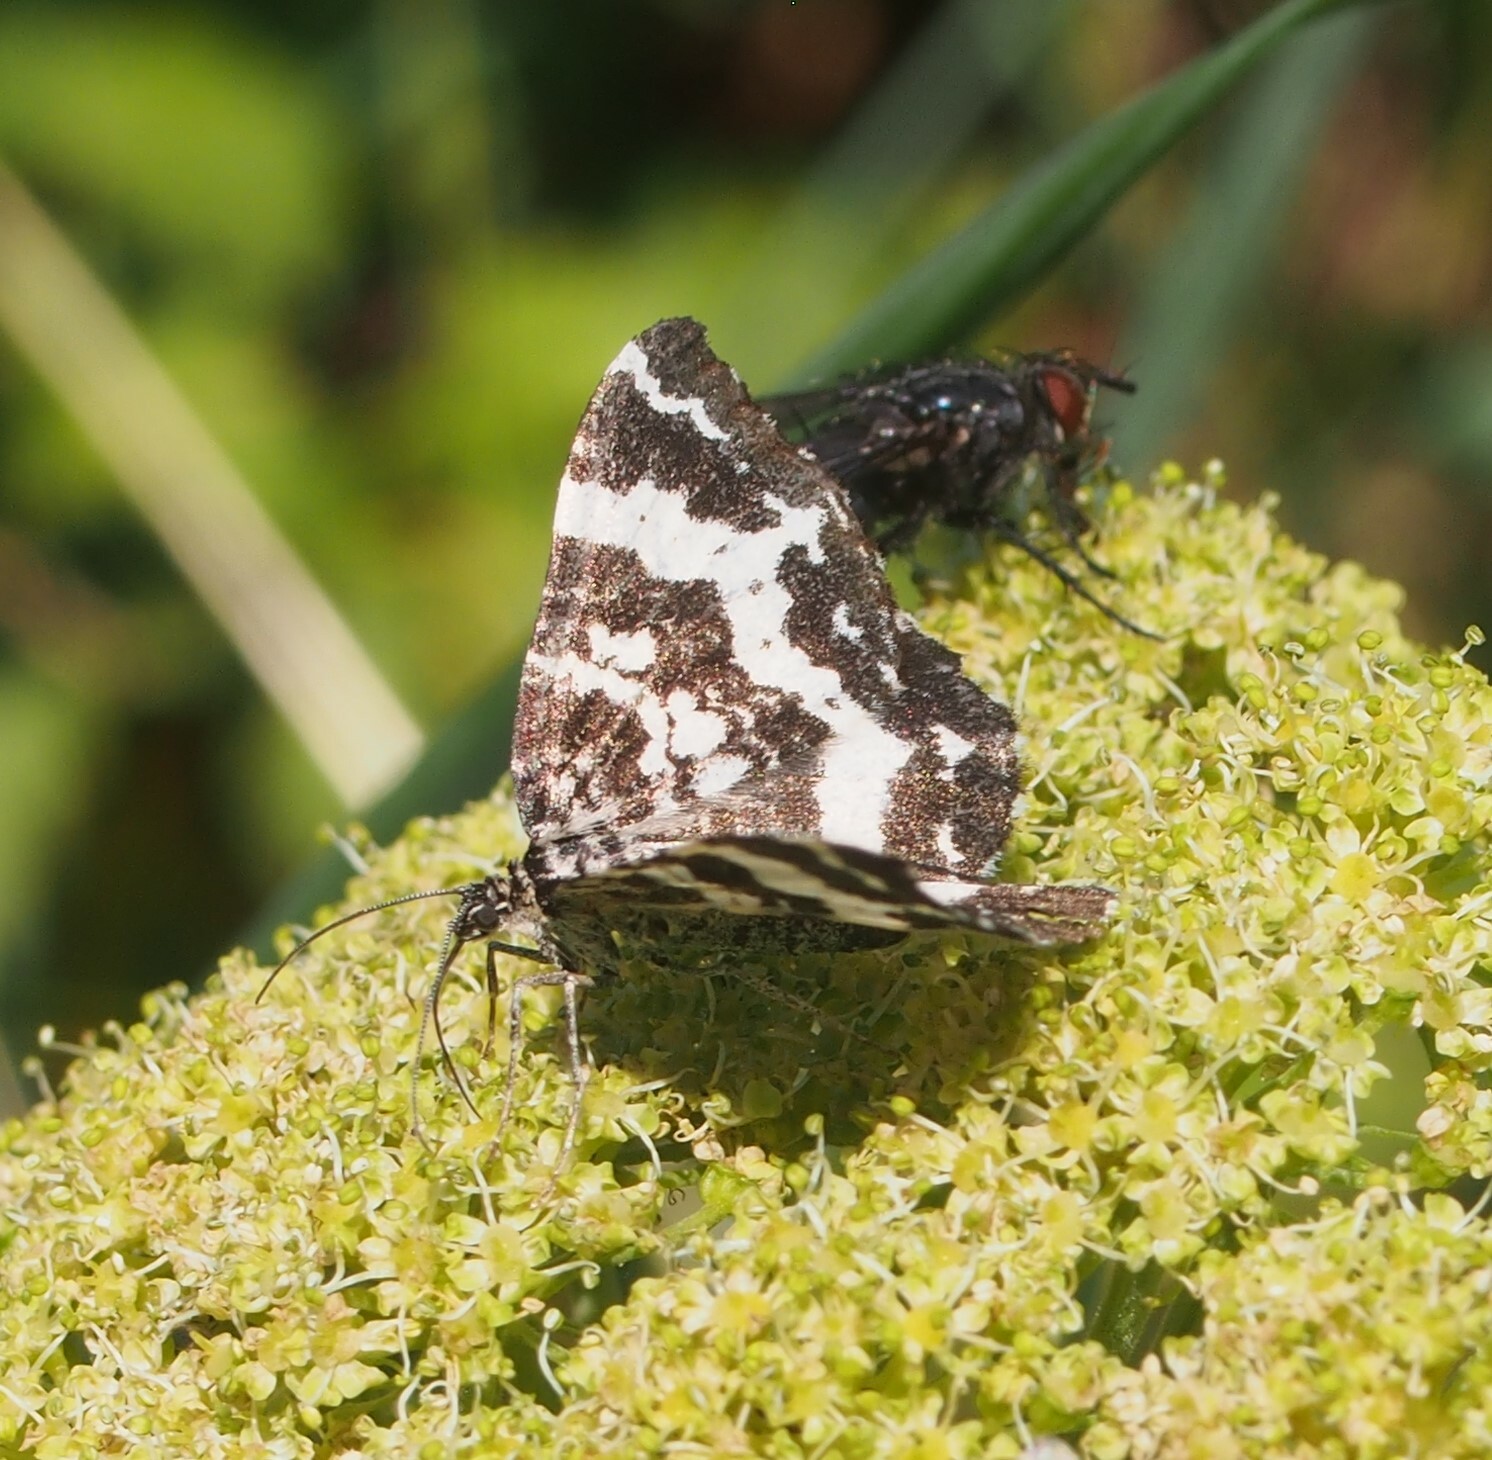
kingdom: Animalia
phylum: Arthropoda
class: Insecta
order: Lepidoptera
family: Geometridae
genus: Rheumaptera
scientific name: Rheumaptera
